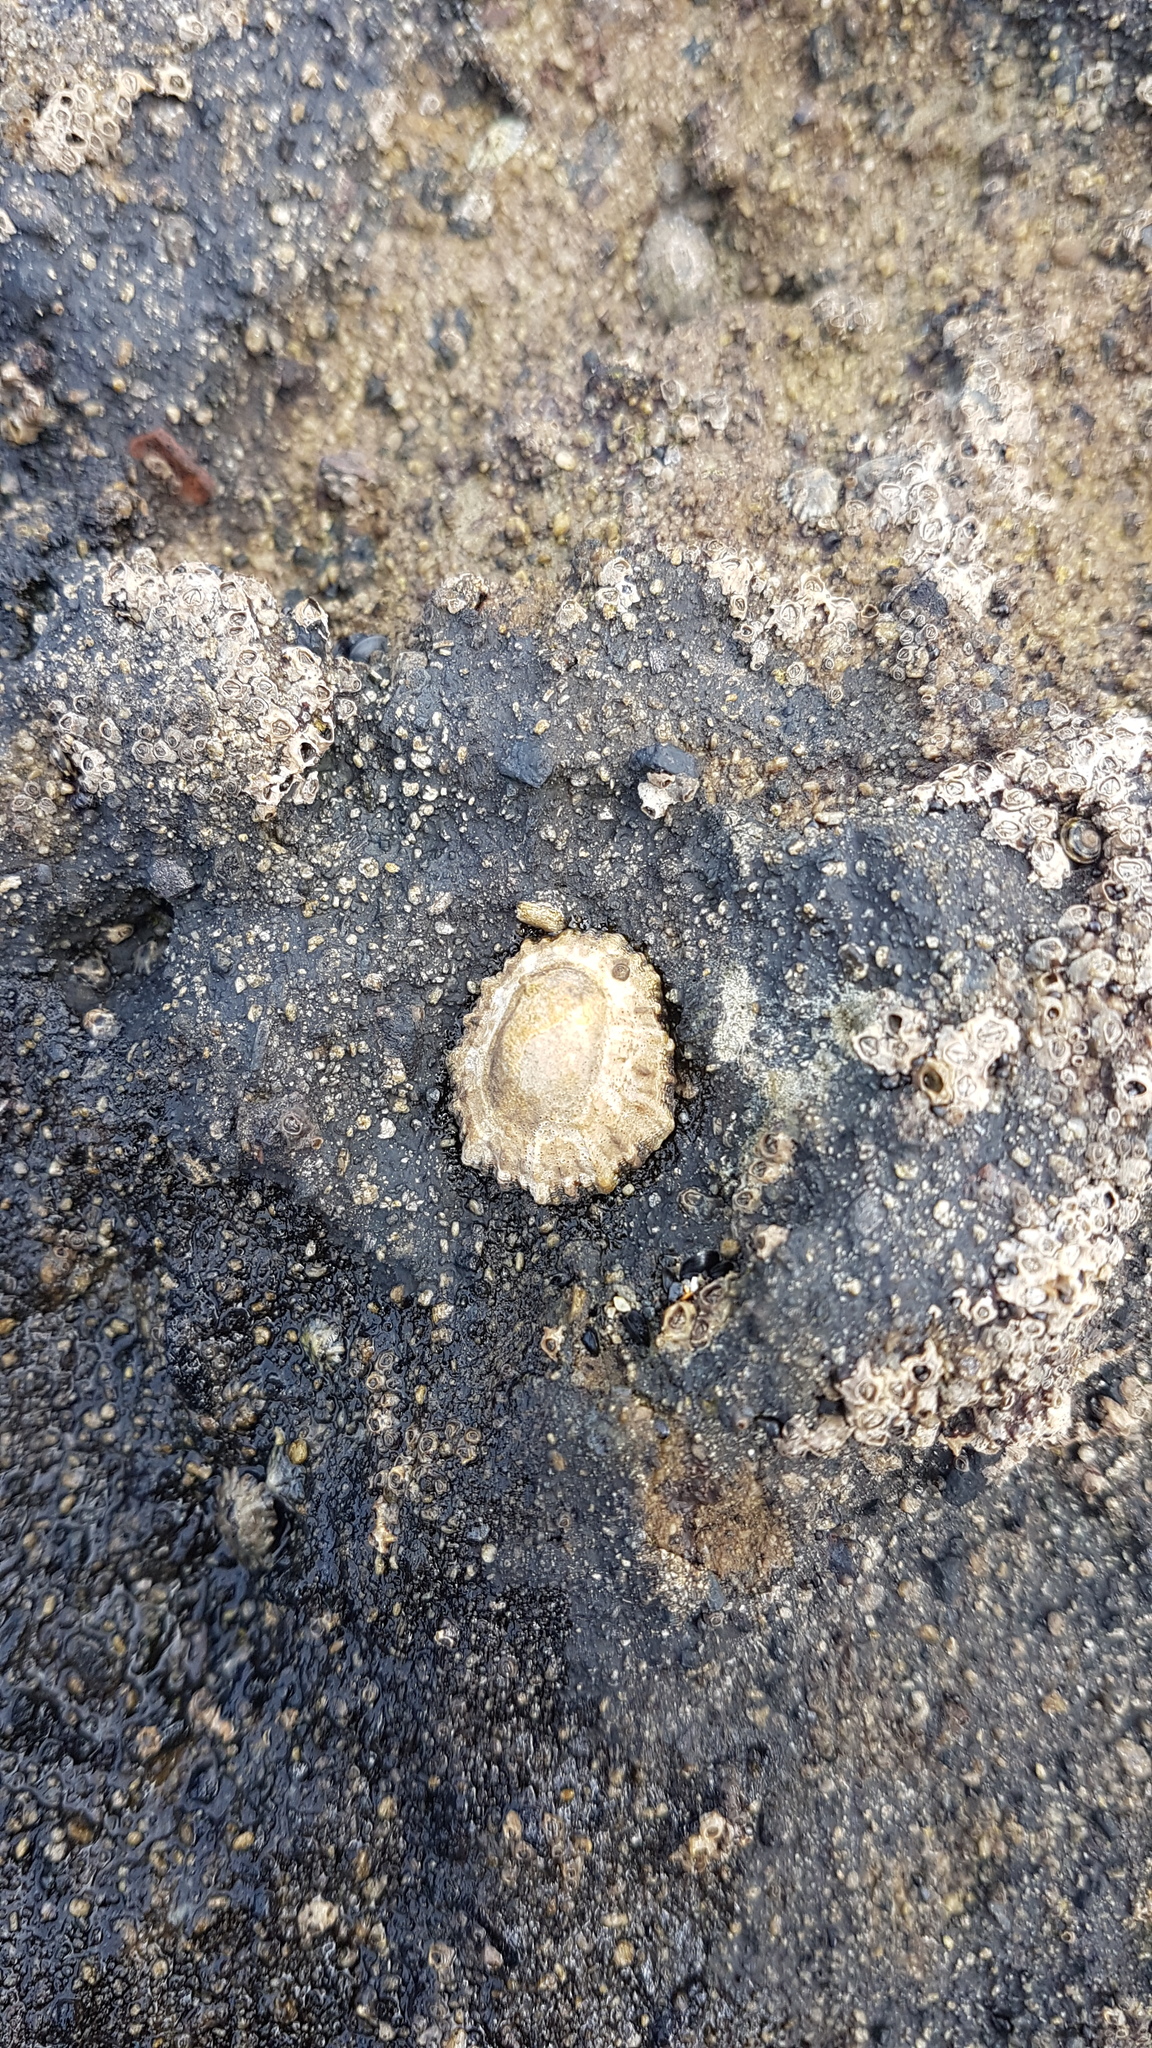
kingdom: Animalia
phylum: Mollusca
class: Gastropoda
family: Nacellidae
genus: Cellana
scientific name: Cellana ornata
